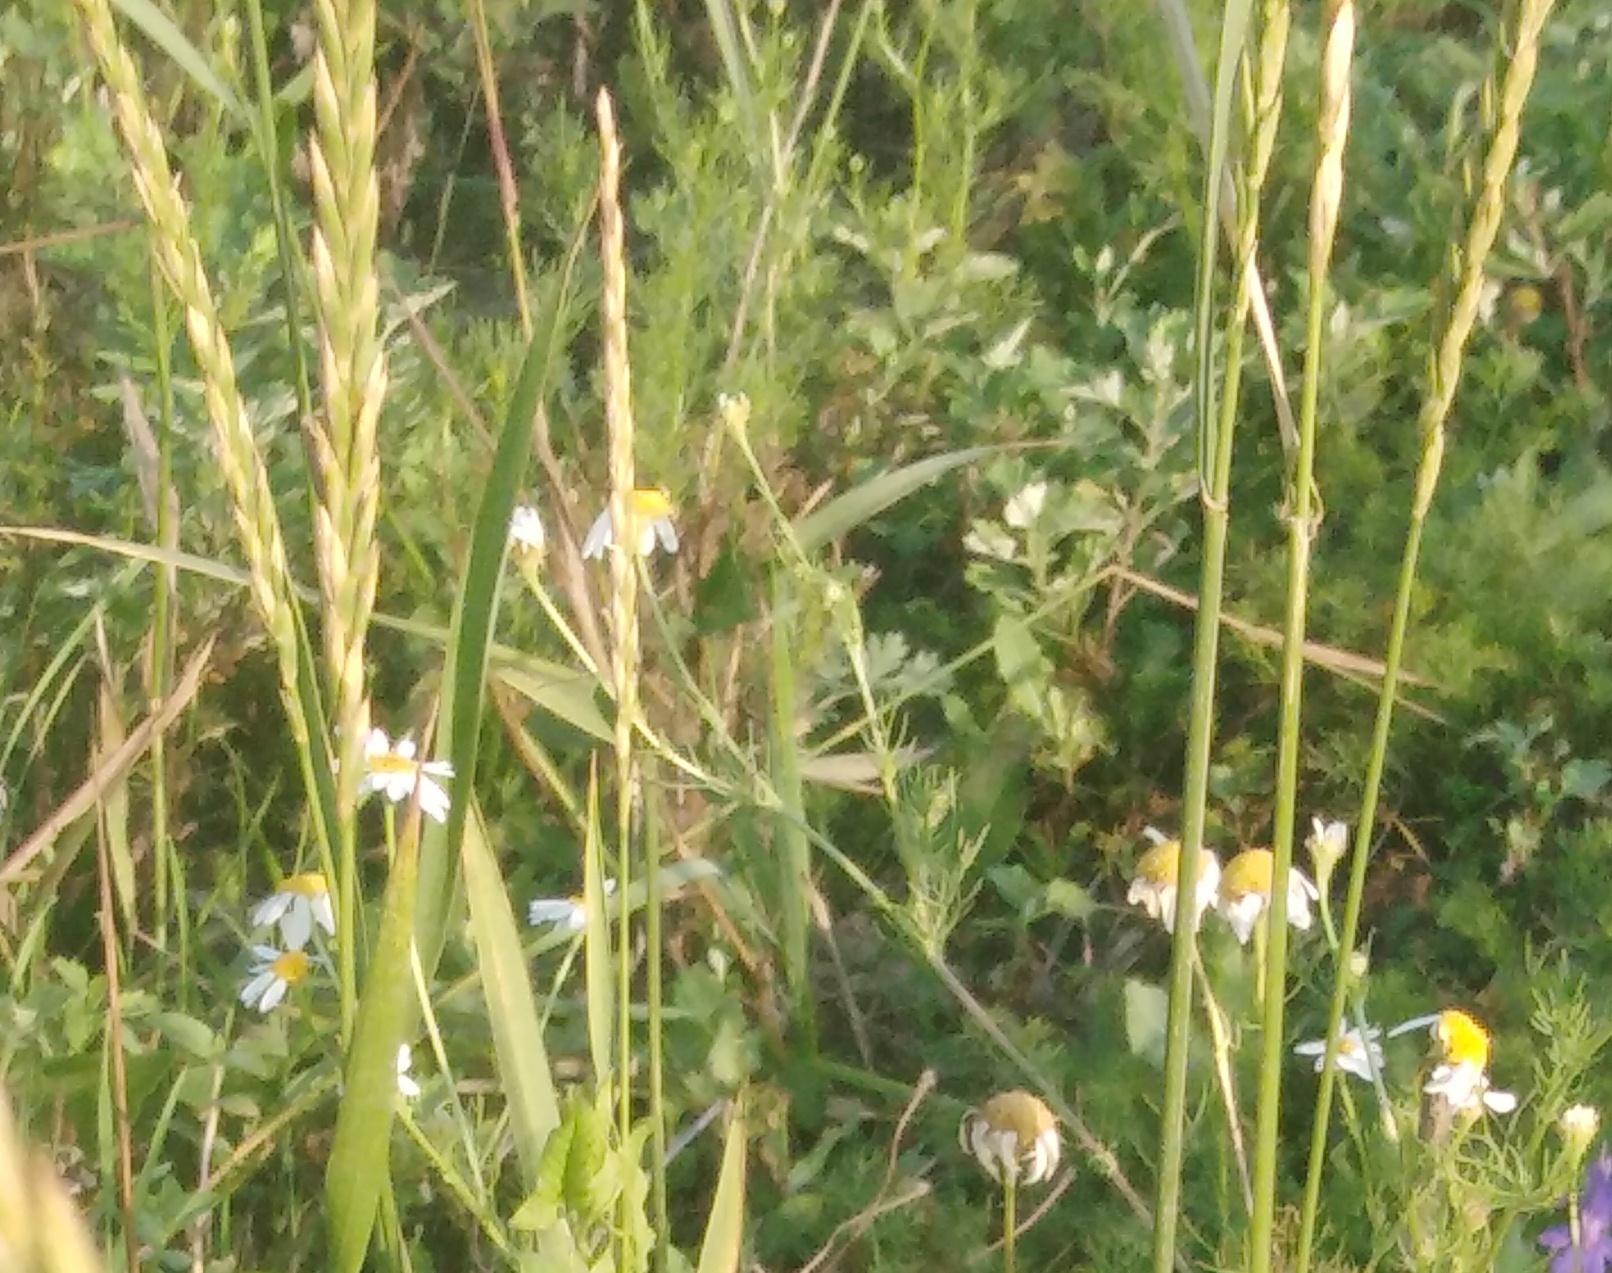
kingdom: Plantae
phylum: Tracheophyta
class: Liliopsida
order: Poales
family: Poaceae
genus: Elymus
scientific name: Elymus repens
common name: Quackgrass
